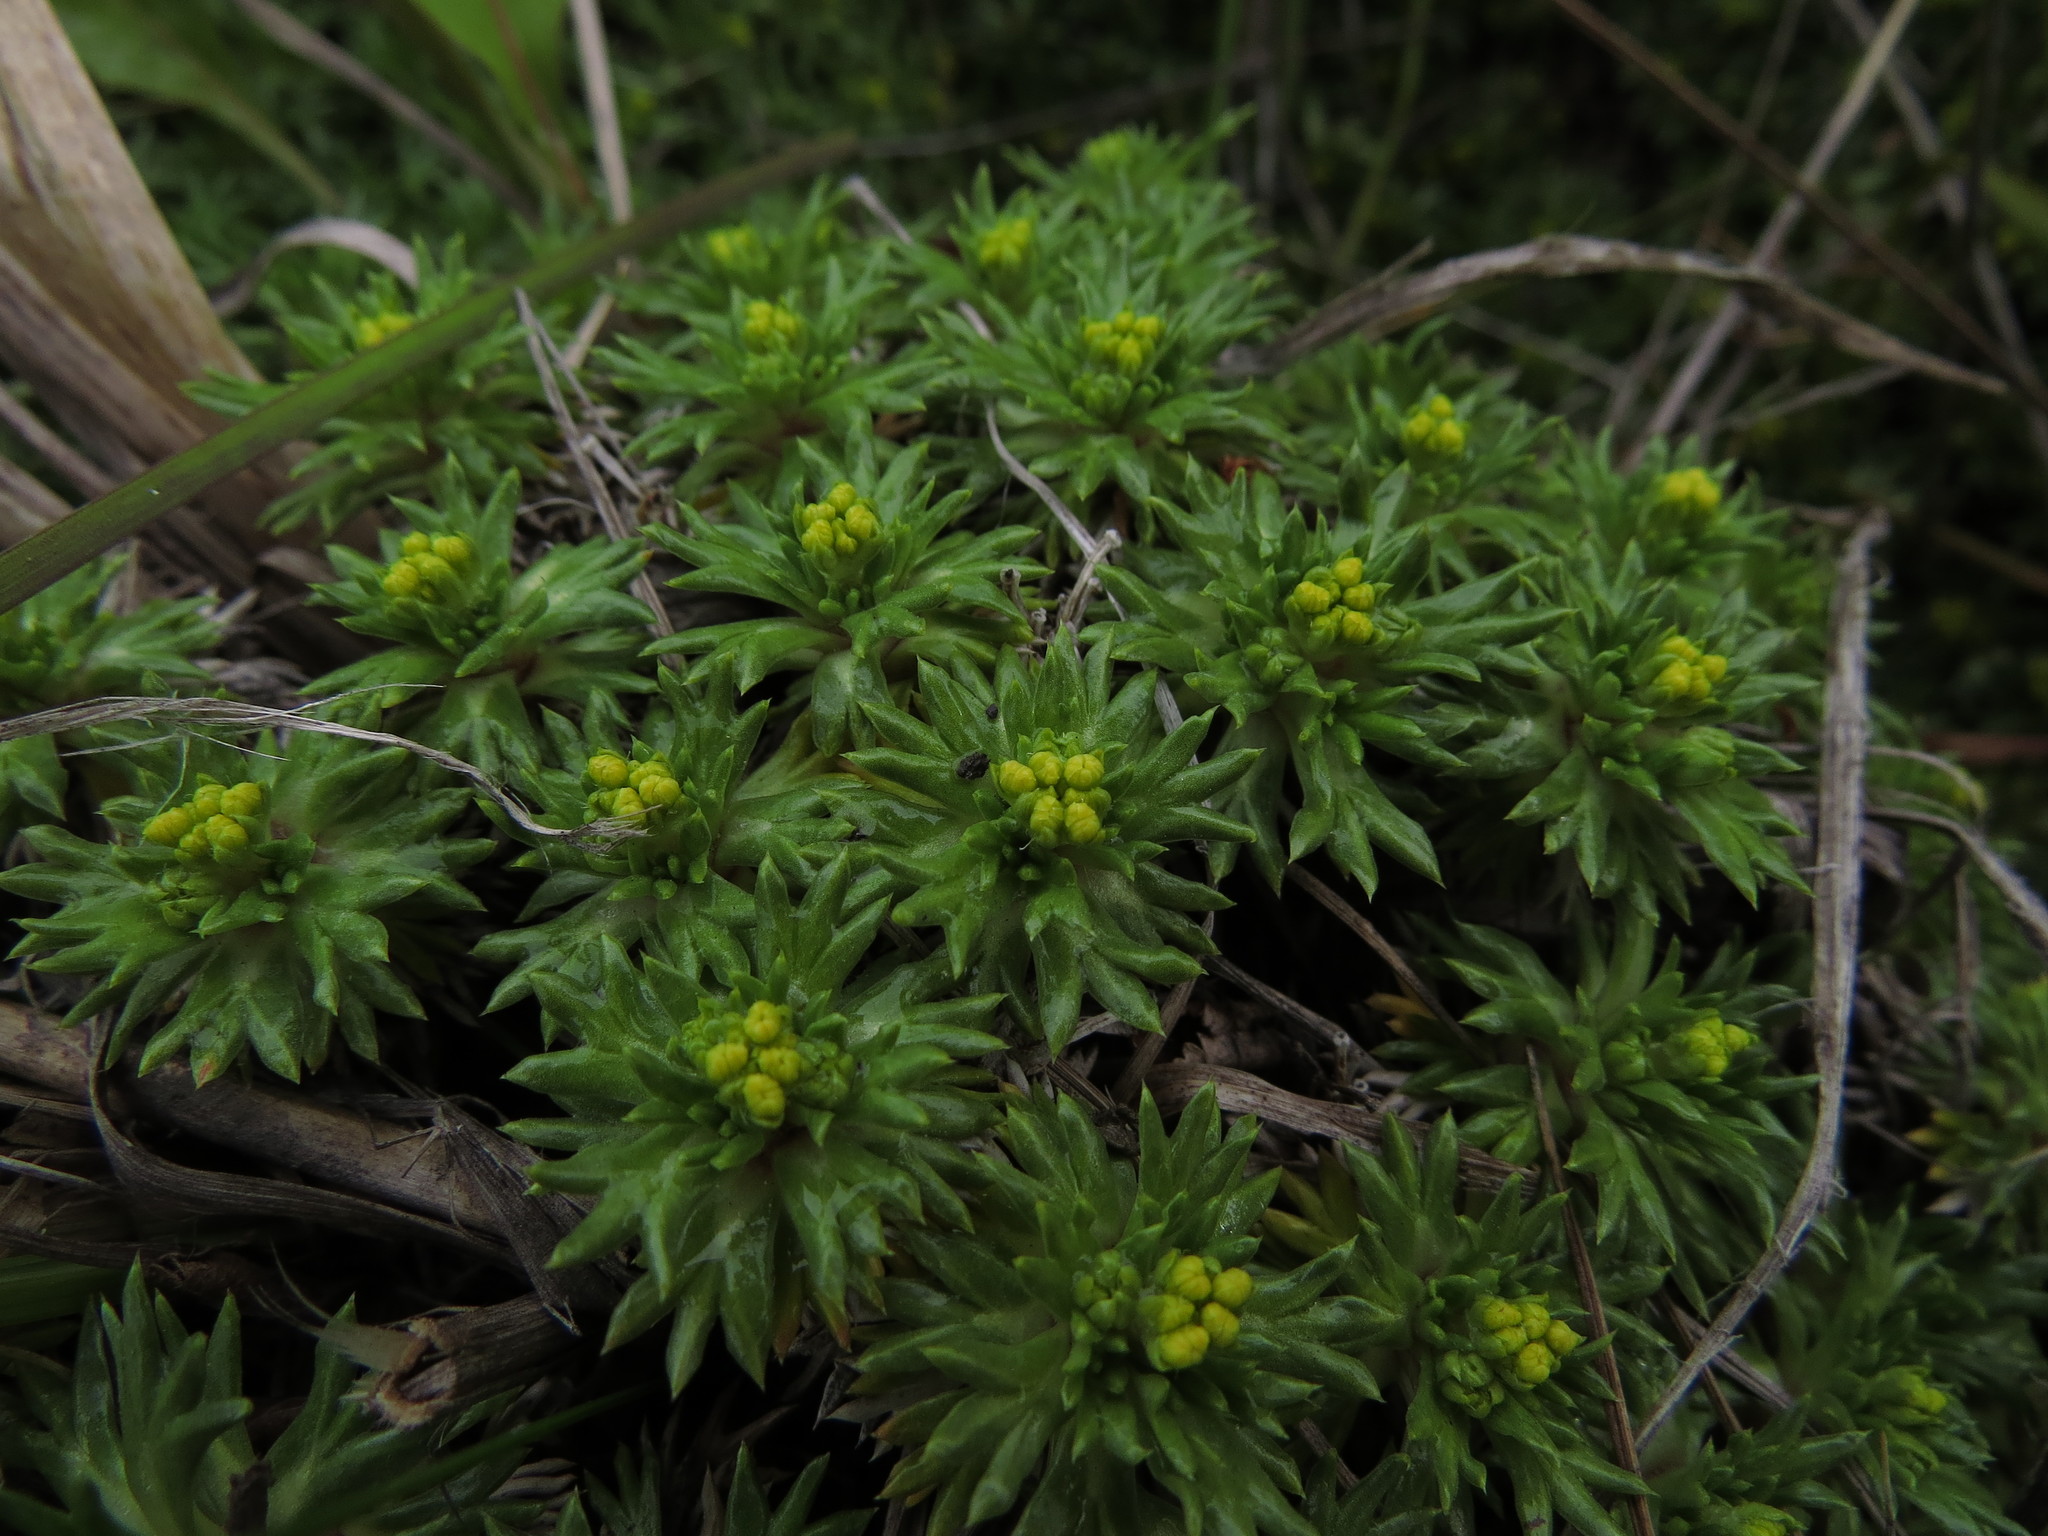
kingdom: Plantae
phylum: Tracheophyta
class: Magnoliopsida
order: Apiales
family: Apiaceae
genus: Azorella
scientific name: Azorella trifurcata
